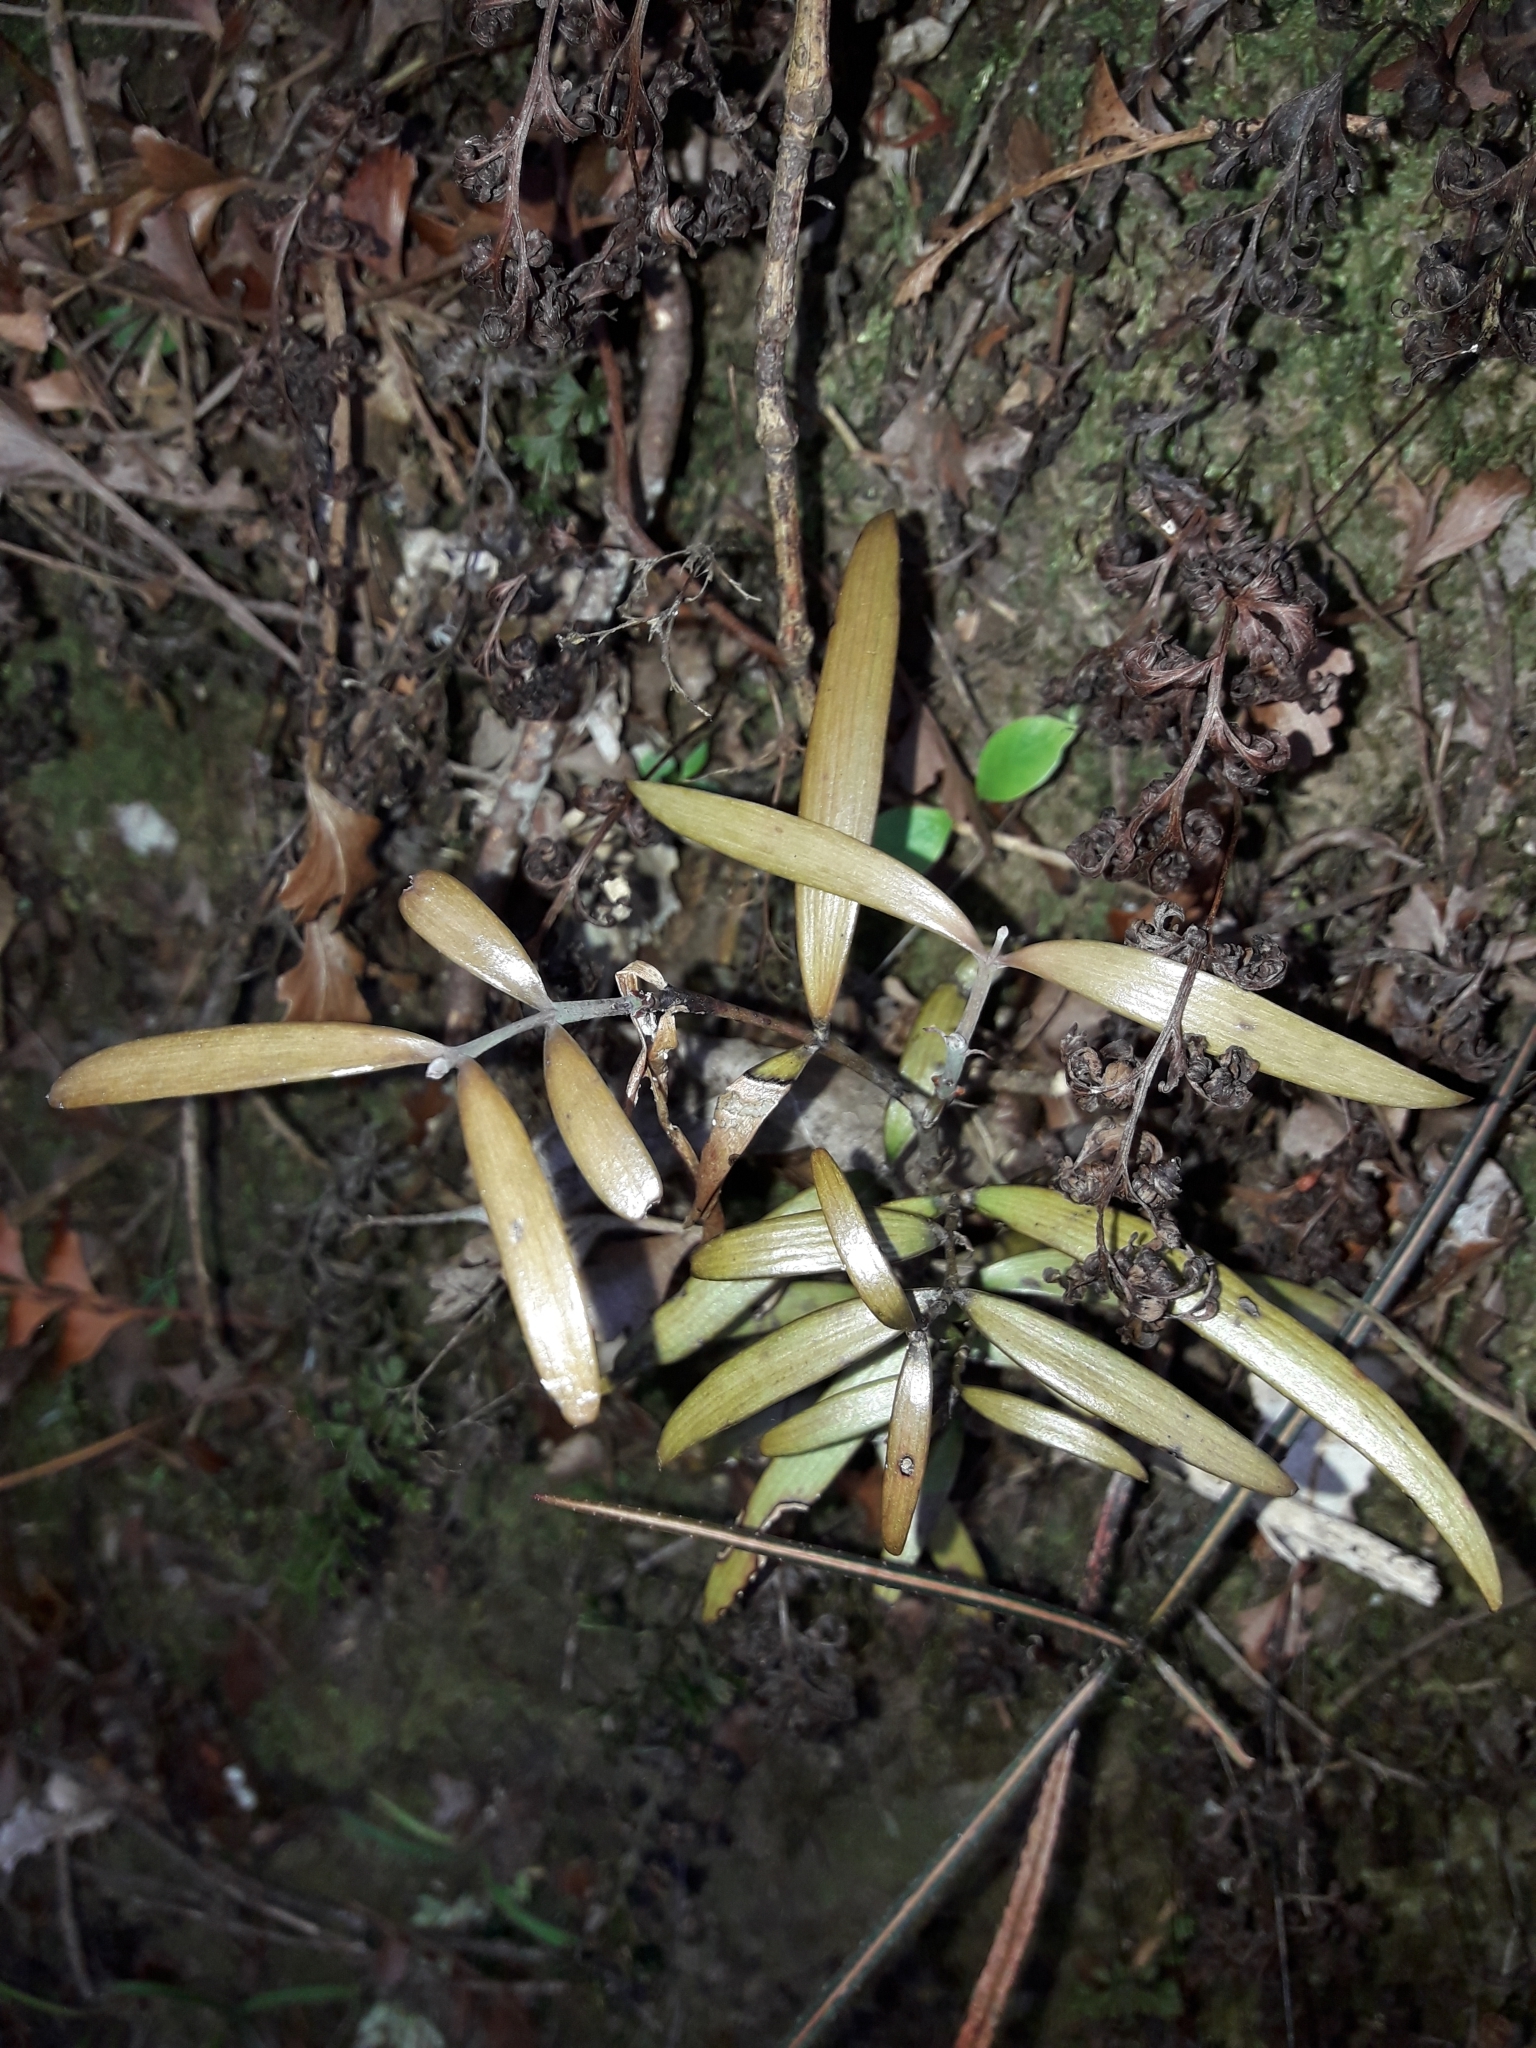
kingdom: Plantae
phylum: Tracheophyta
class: Pinopsida
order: Pinales
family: Araucariaceae
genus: Agathis
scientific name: Agathis australis
